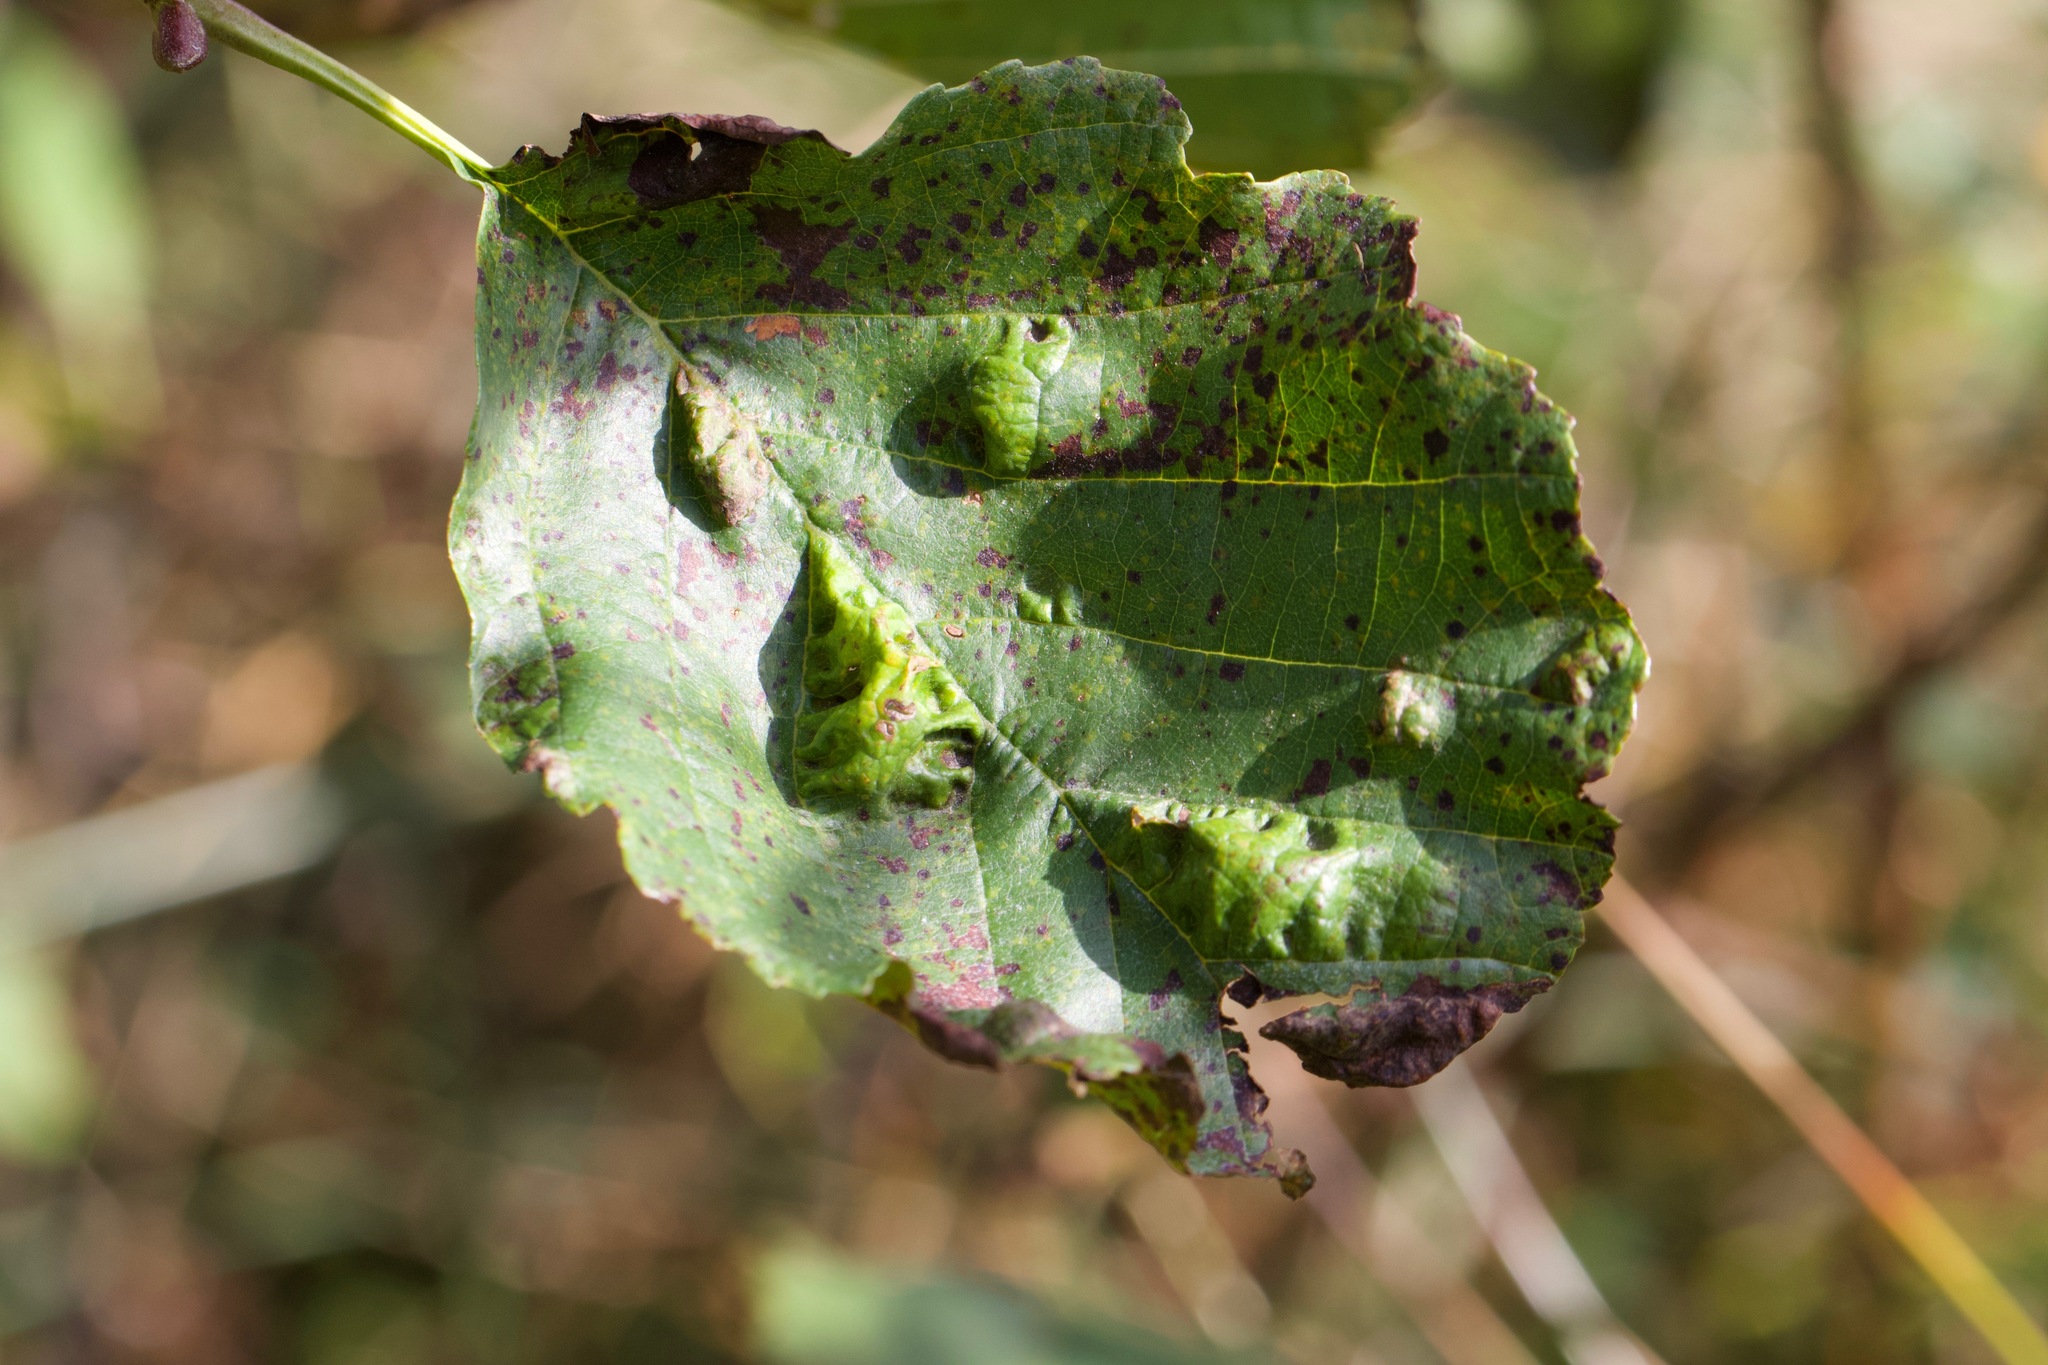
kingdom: Fungi
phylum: Ascomycota
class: Taphrinomycetes
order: Taphrinales
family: Taphrinaceae
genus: Taphrina
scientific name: Taphrina tosquinetii
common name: Alder wrinkle
